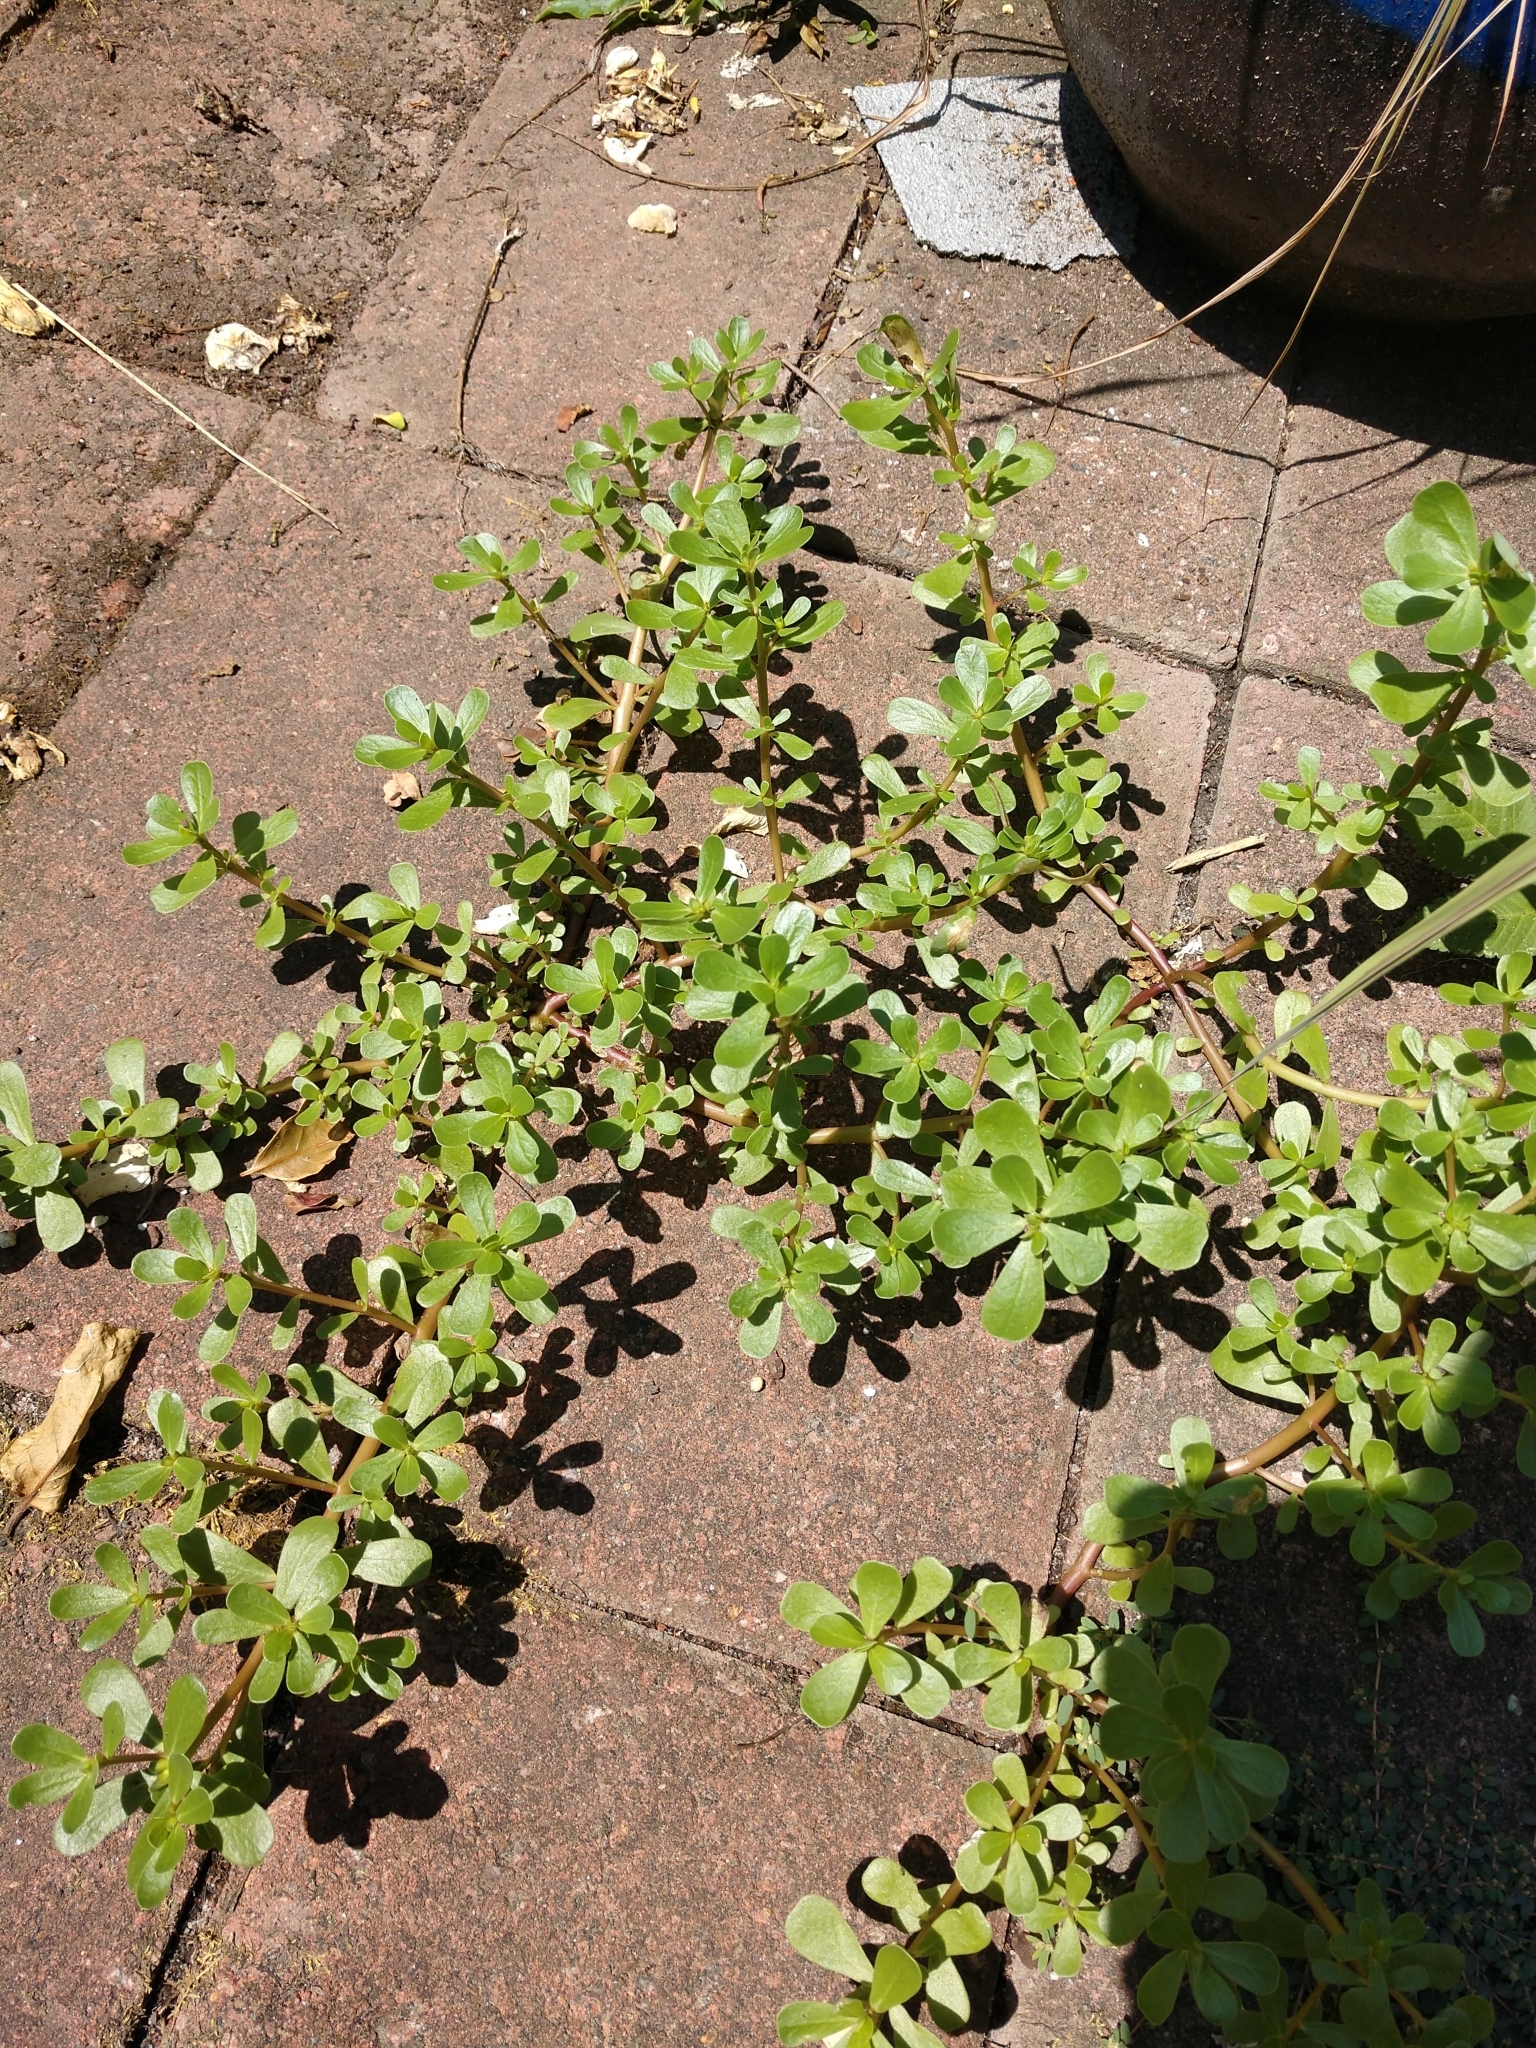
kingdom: Plantae
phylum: Tracheophyta
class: Magnoliopsida
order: Caryophyllales
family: Portulacaceae
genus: Portulaca
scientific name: Portulaca oleracea
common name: Common purslane
